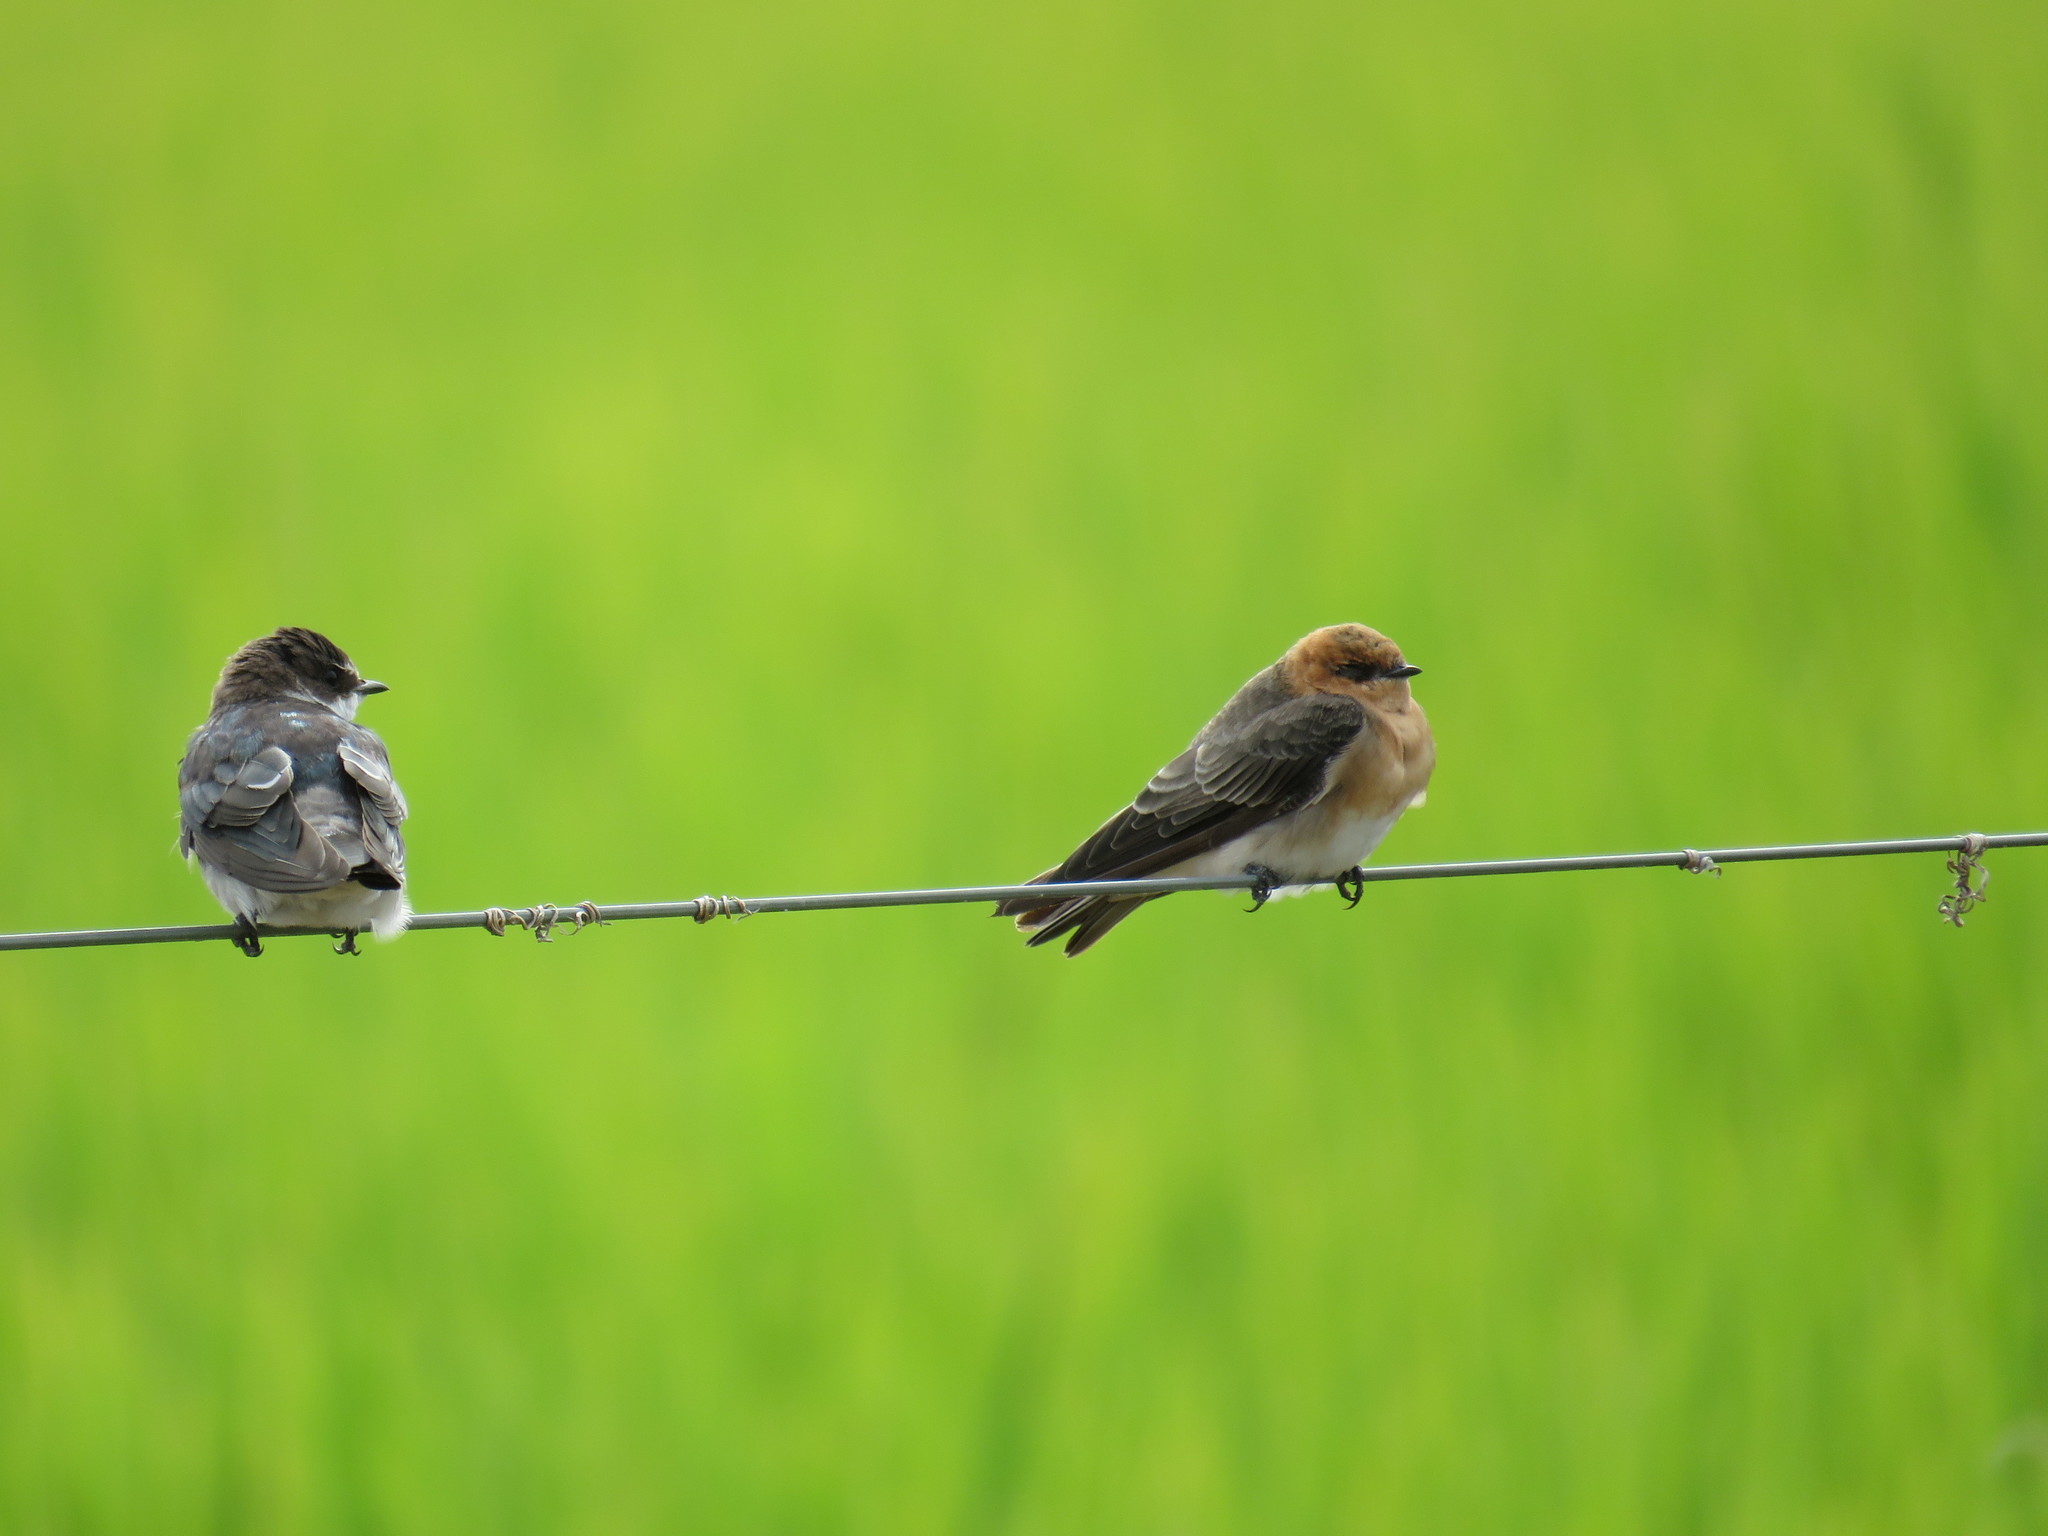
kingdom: Animalia
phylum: Chordata
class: Aves
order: Passeriformes
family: Hirundinidae
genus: Alopochelidon
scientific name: Alopochelidon fucata
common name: Tawny-headed swallow
